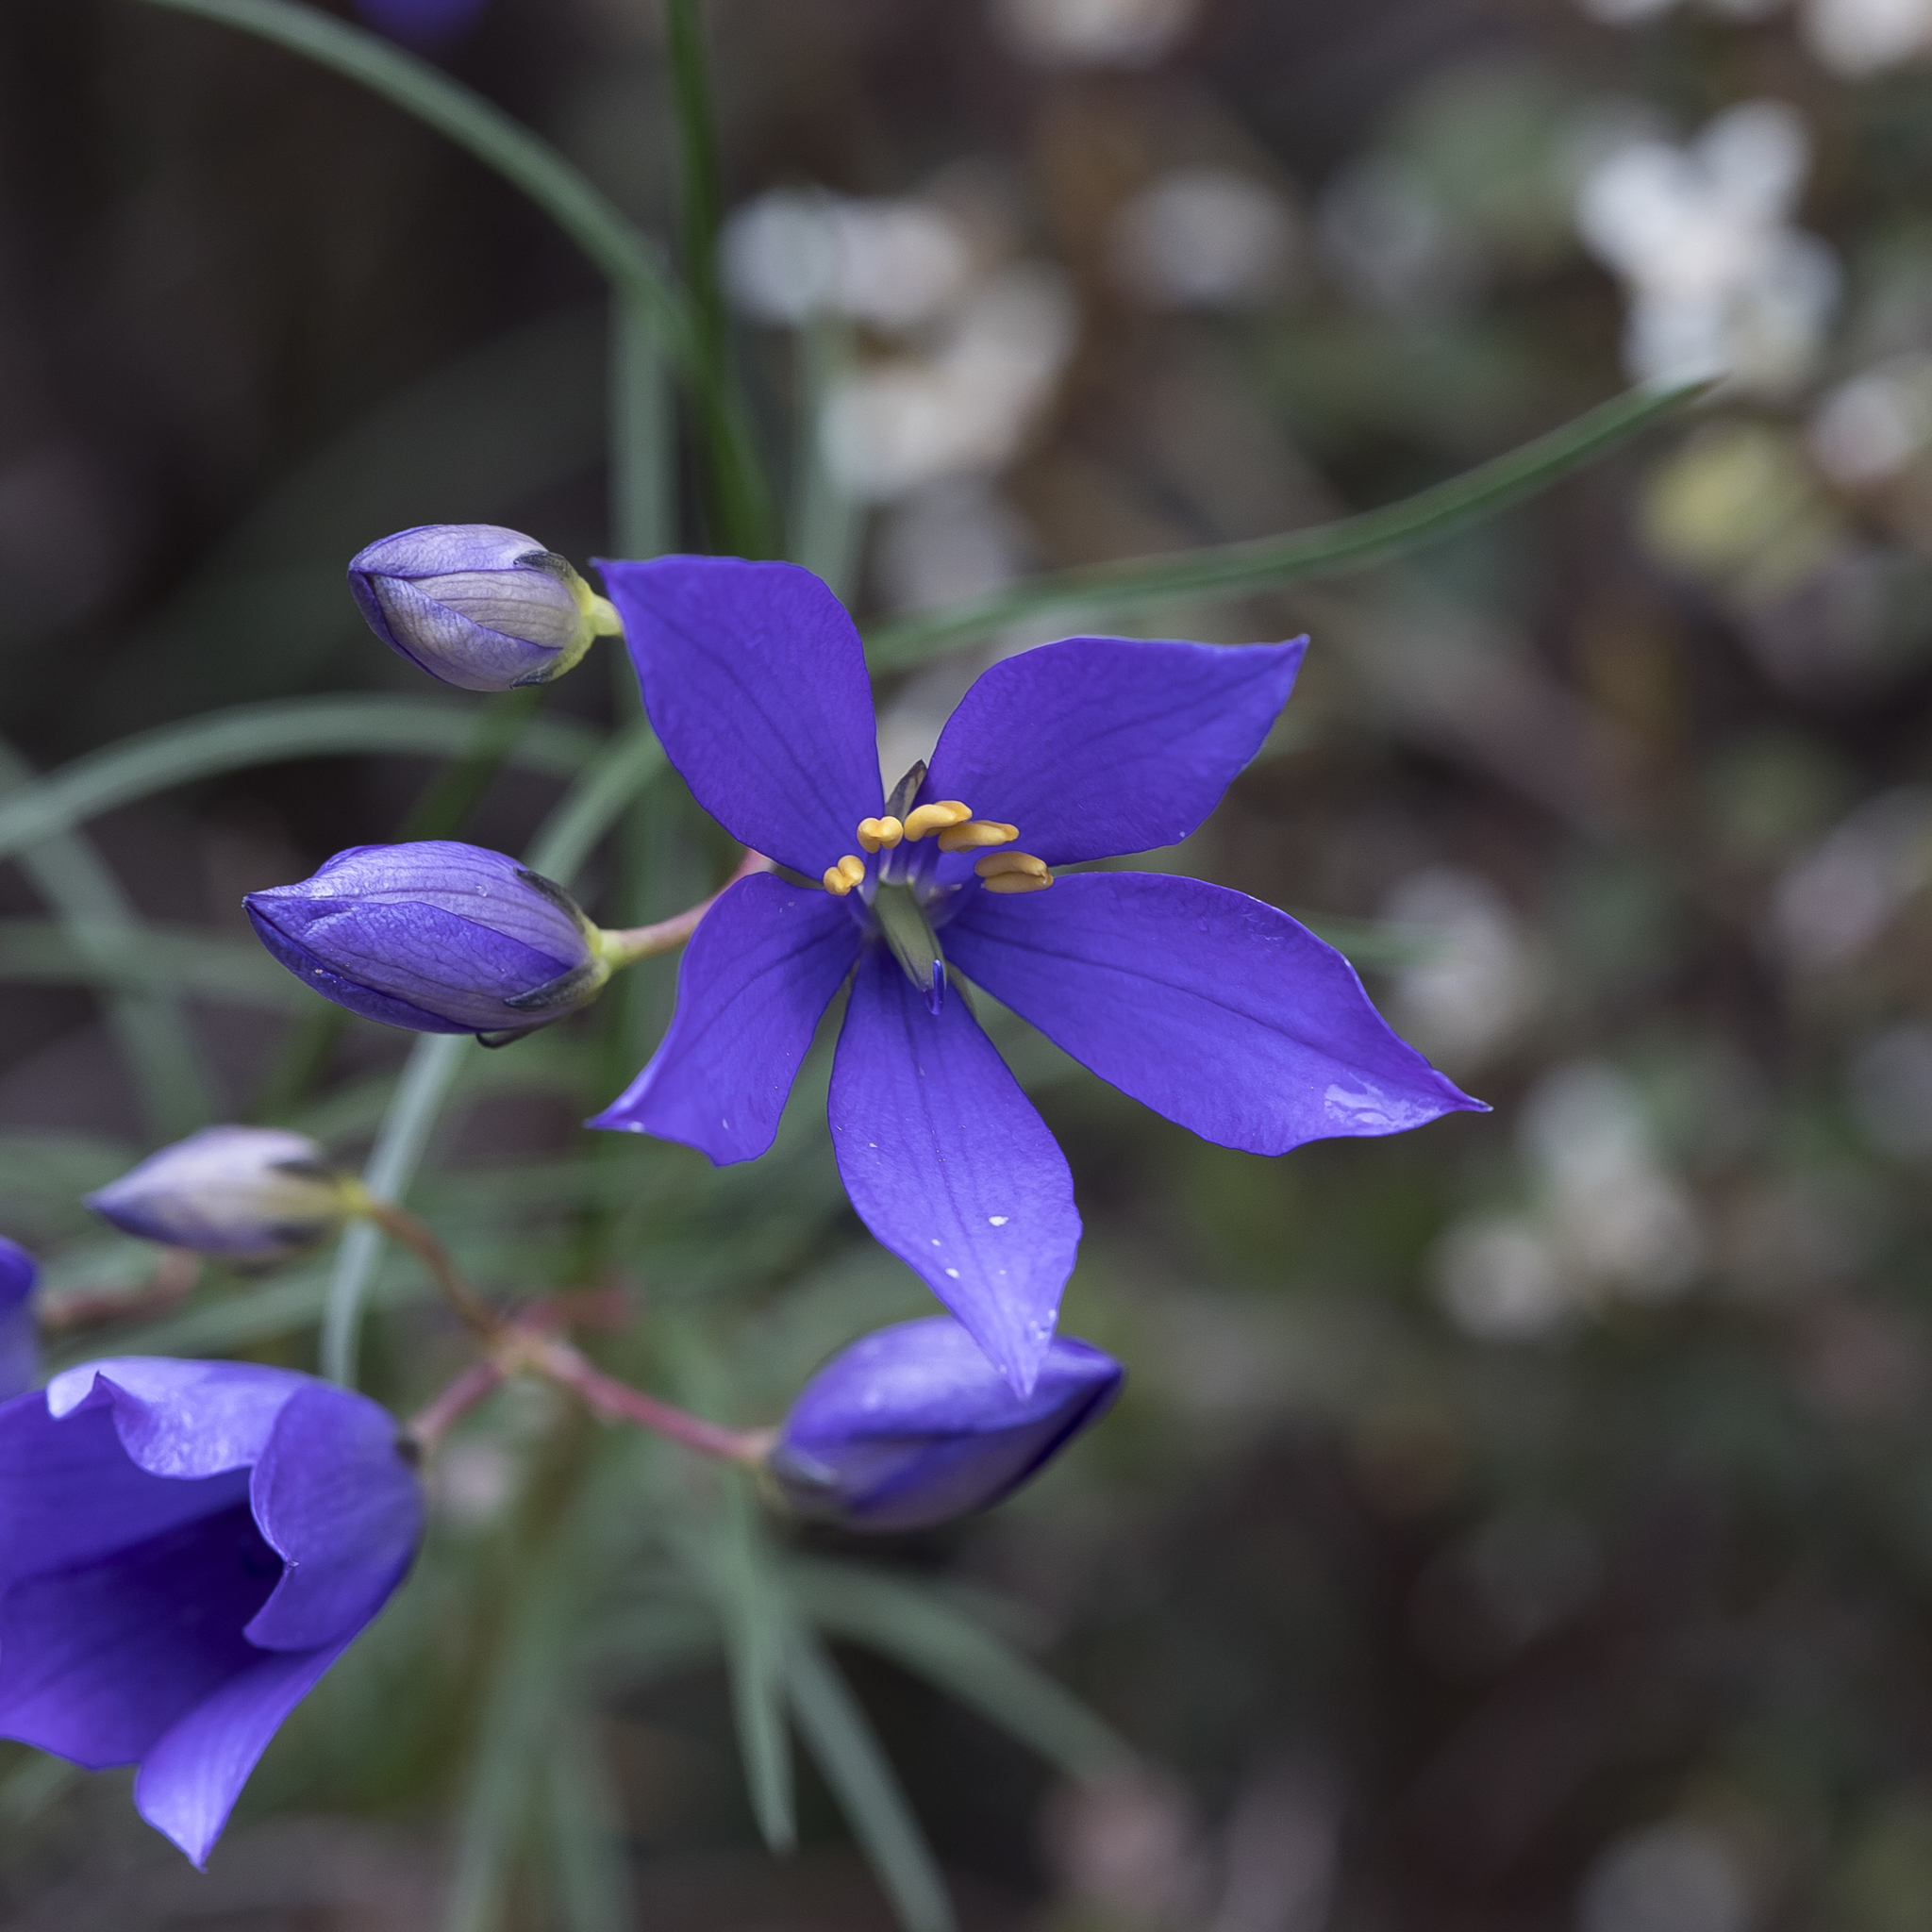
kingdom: Plantae
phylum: Tracheophyta
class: Magnoliopsida
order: Apiales
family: Pittosporaceae
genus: Cheiranthera
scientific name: Cheiranthera alternifolia
